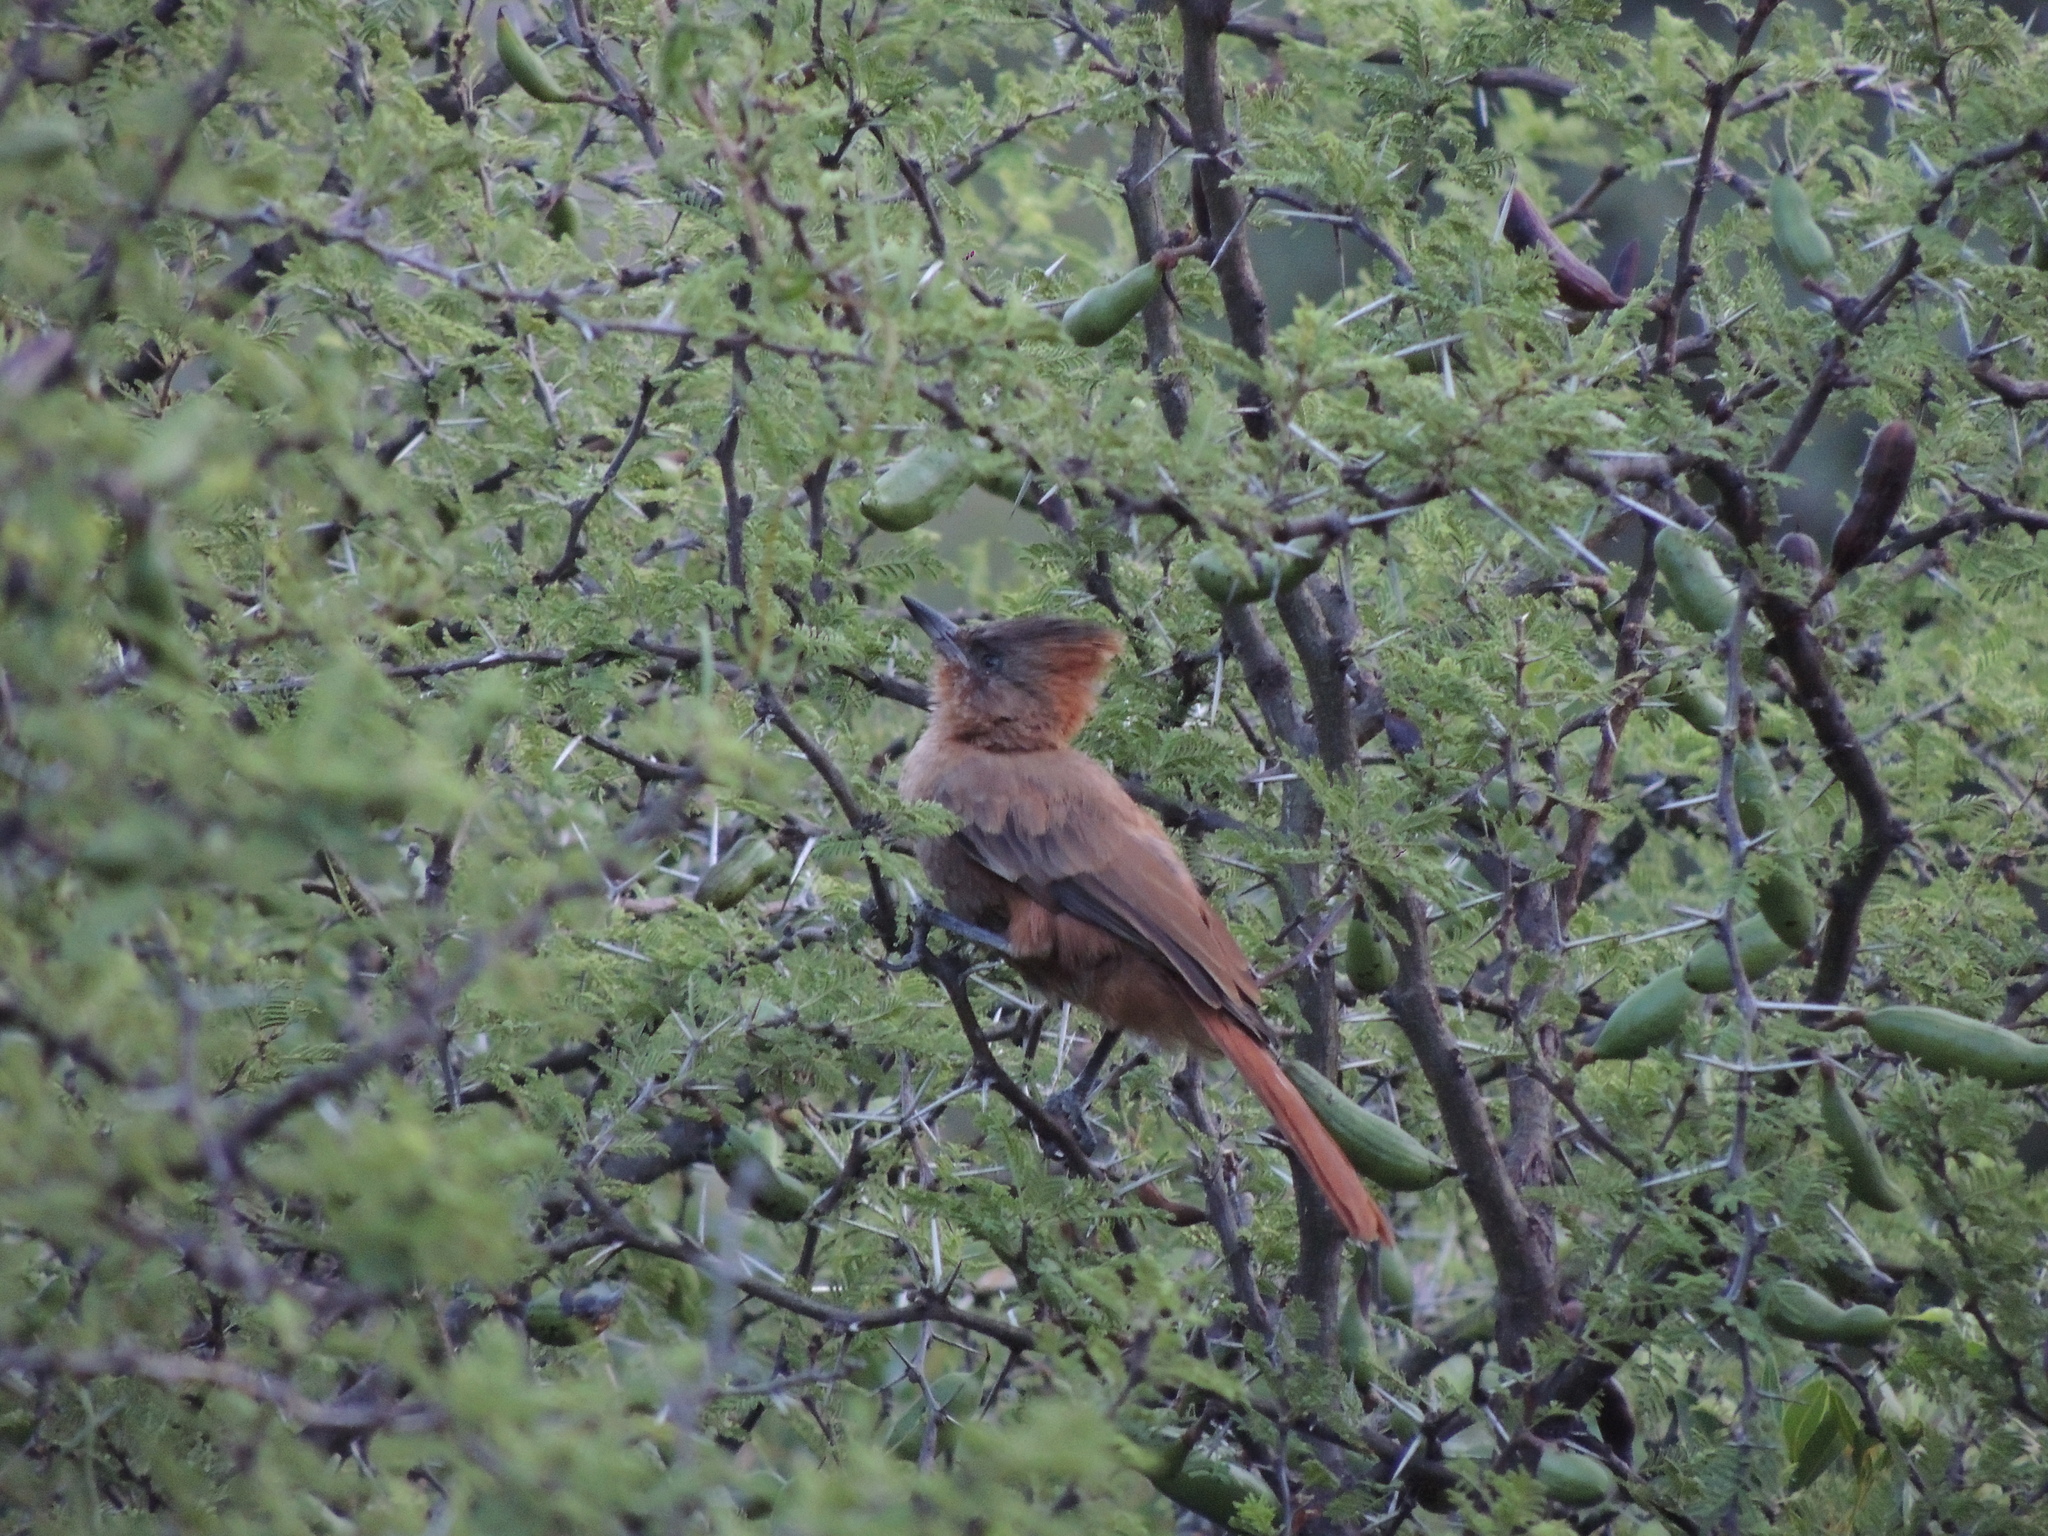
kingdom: Animalia
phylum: Chordata
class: Aves
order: Passeriformes
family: Furnariidae
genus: Pseudoseisura
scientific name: Pseudoseisura lophotes
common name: Brown cacholote
